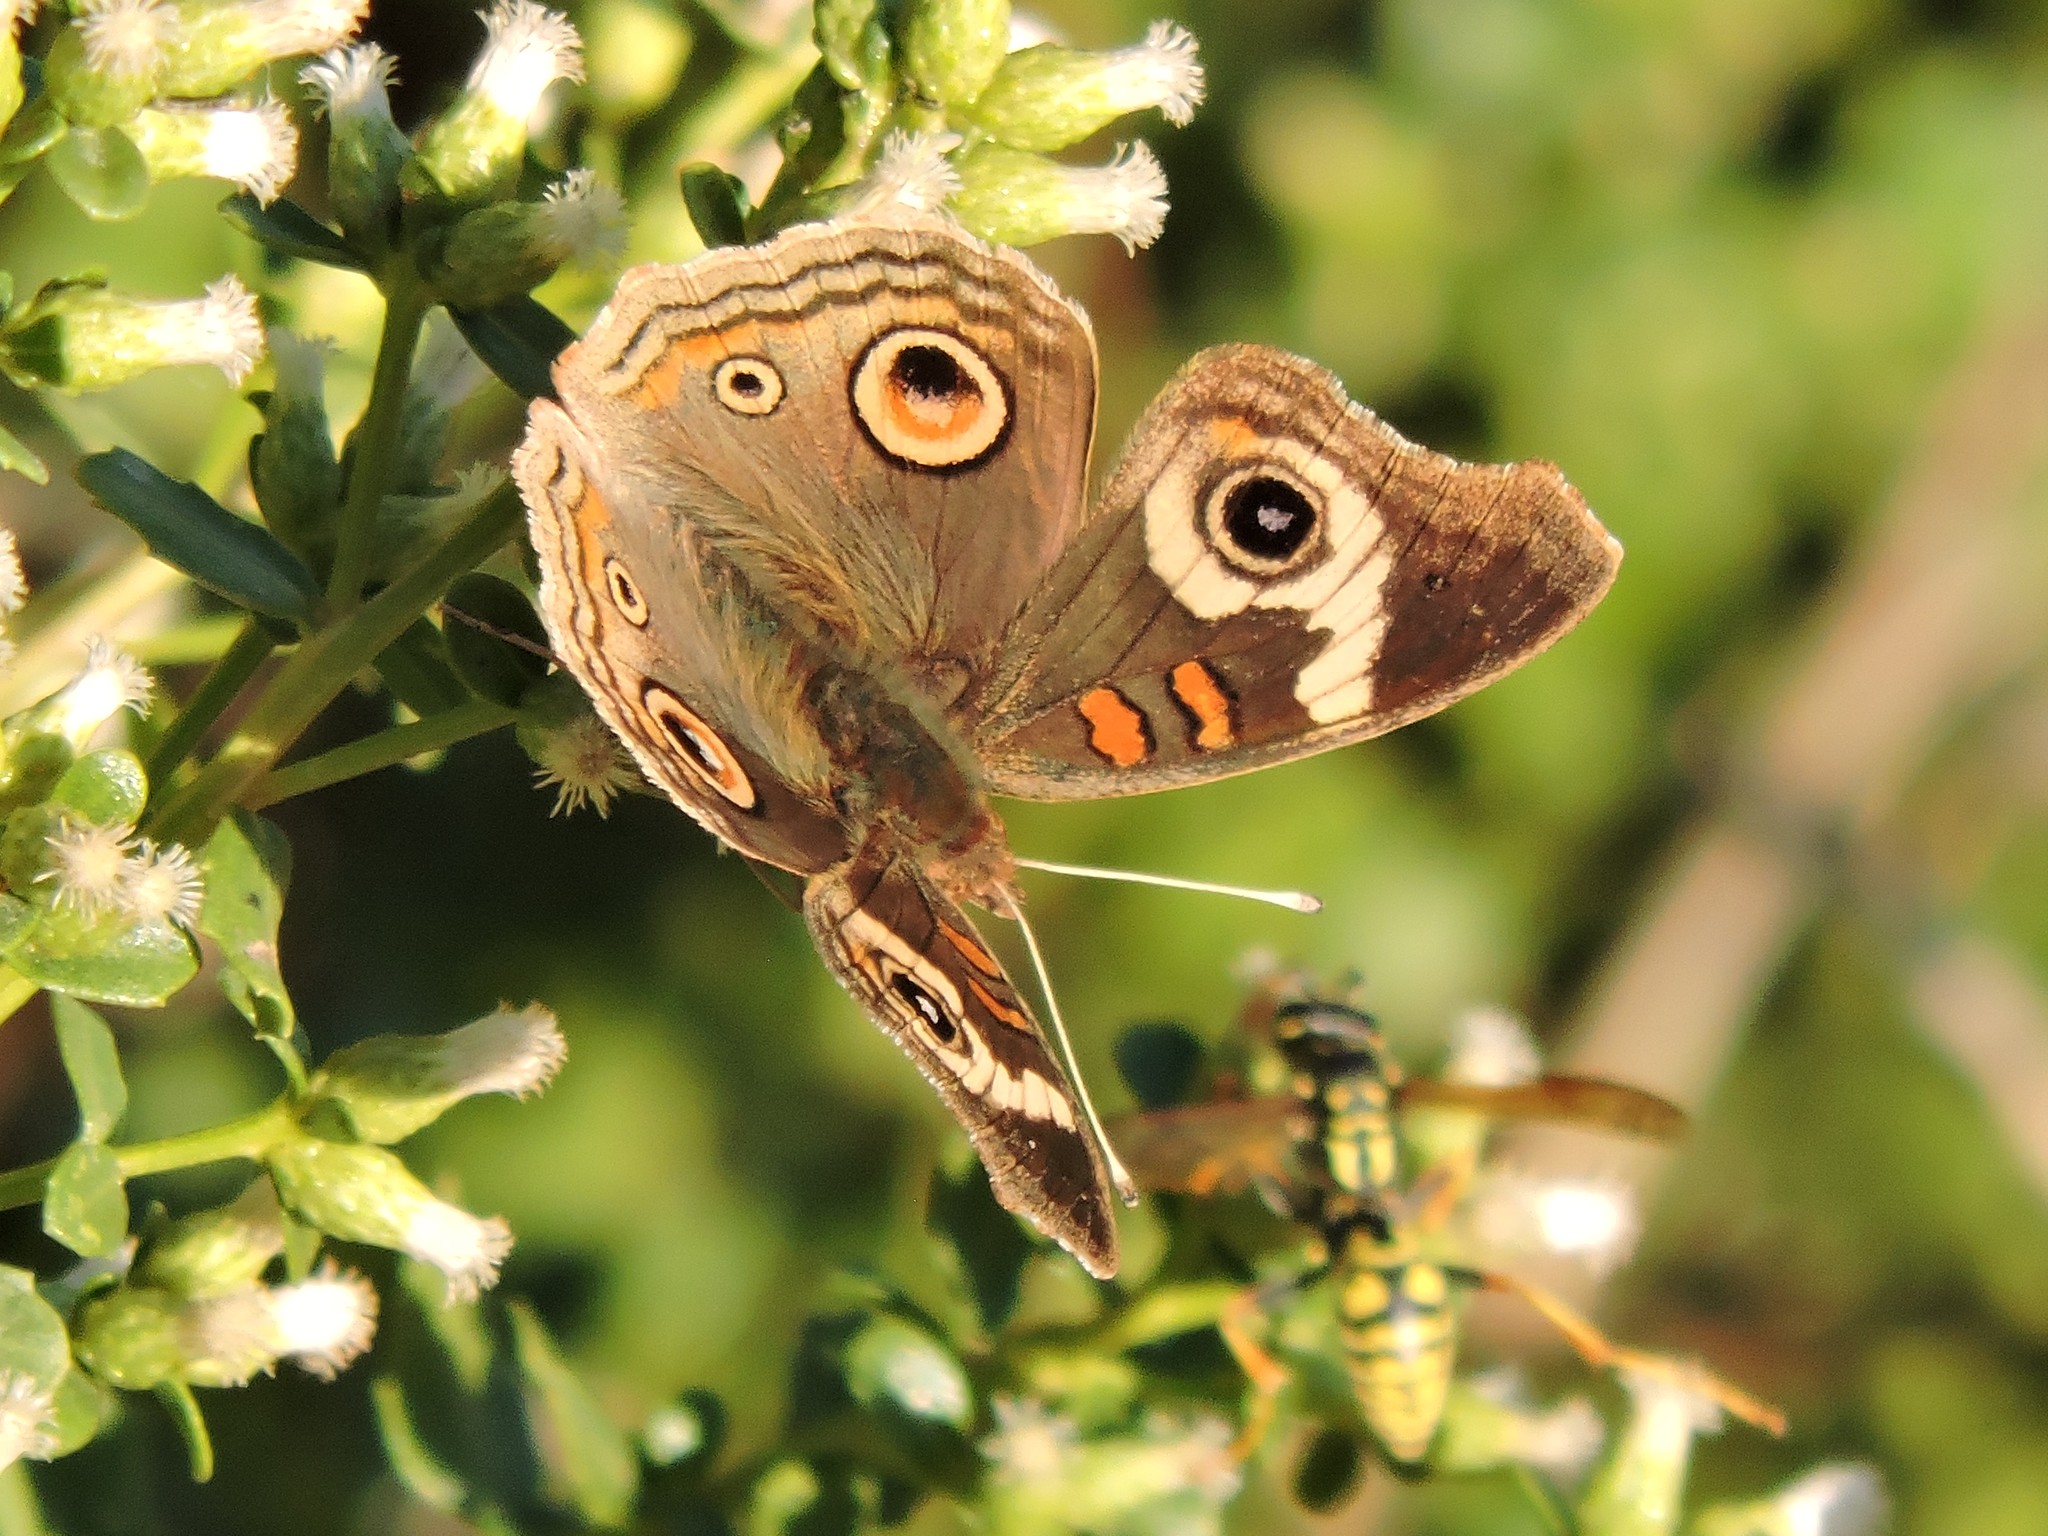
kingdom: Animalia
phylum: Arthropoda
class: Insecta
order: Lepidoptera
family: Nymphalidae
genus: Junonia
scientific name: Junonia grisea
